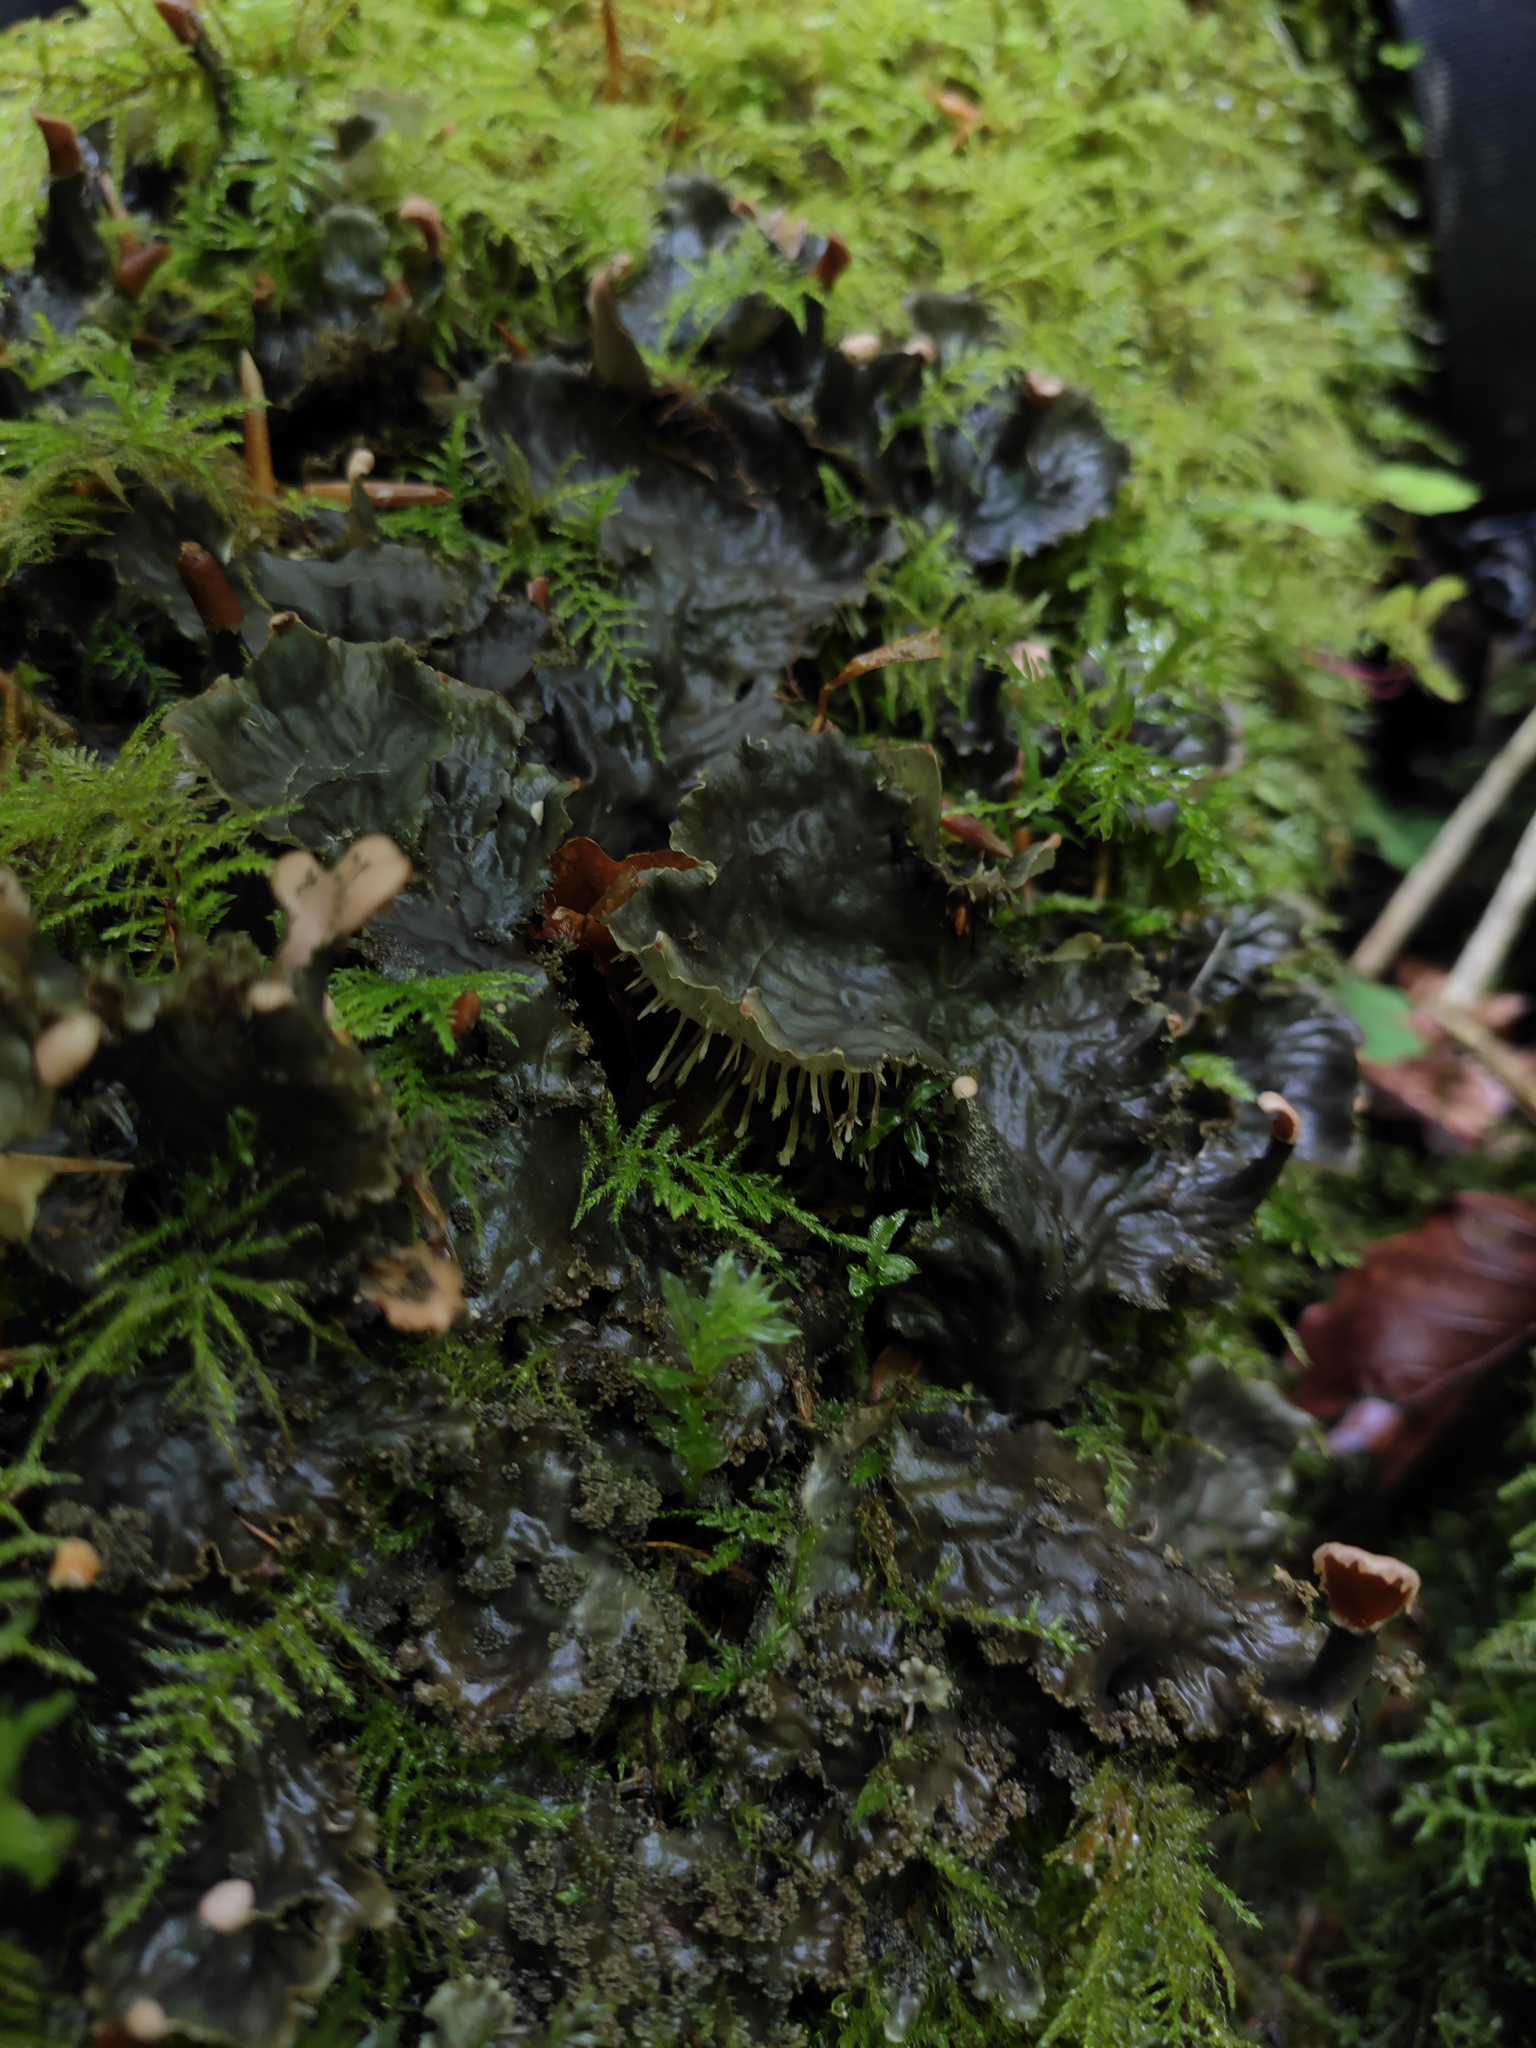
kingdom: Fungi
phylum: Ascomycota
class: Lecanoromycetes
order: Peltigerales
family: Peltigeraceae
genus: Peltigera
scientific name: Peltigera praetextata
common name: Scaly dog-lichen
